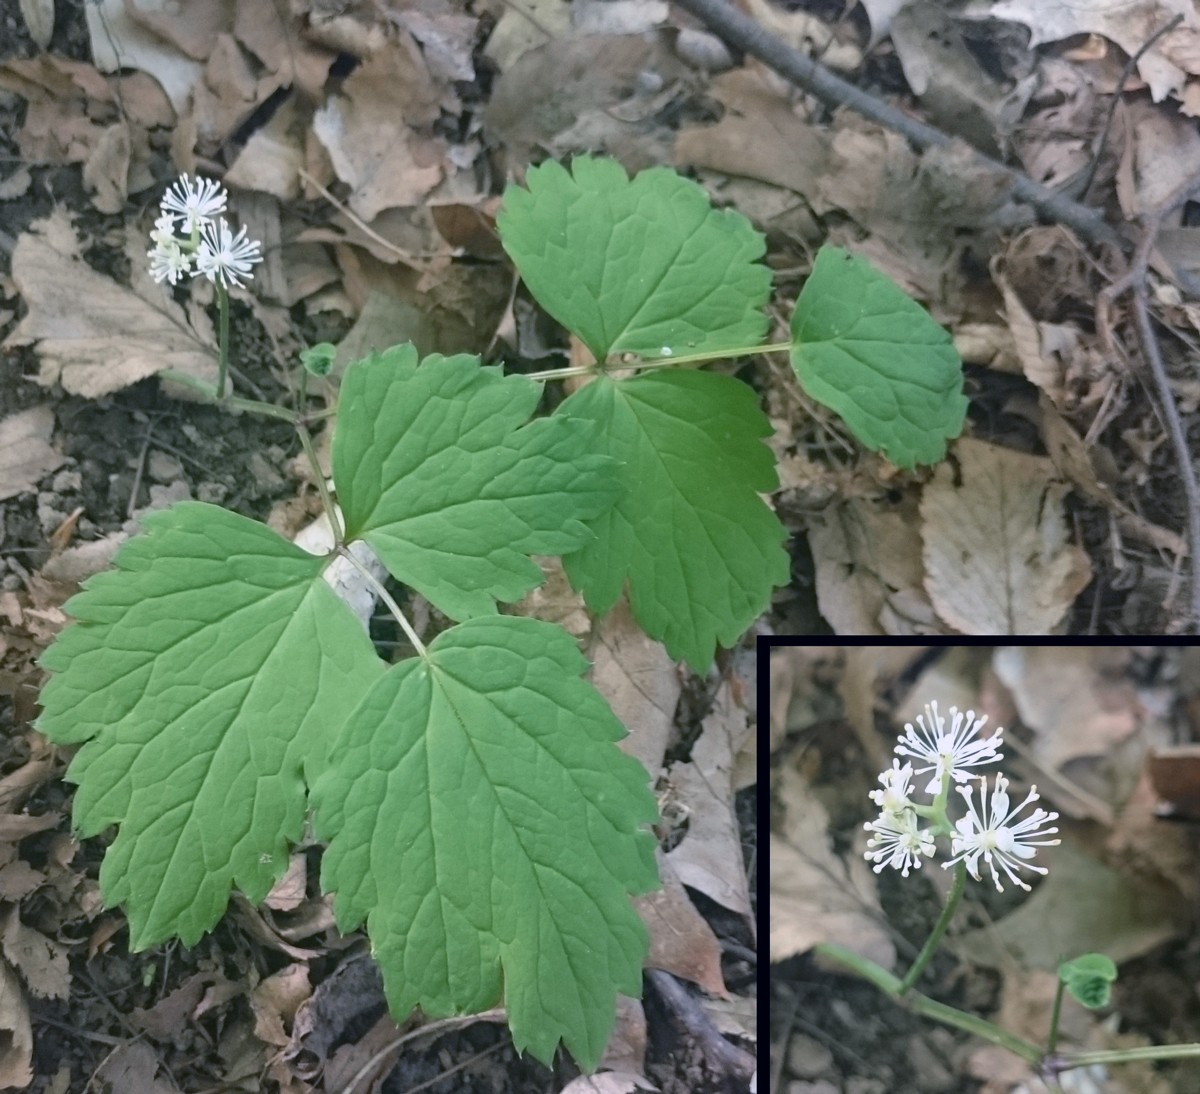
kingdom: Plantae
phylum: Tracheophyta
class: Magnoliopsida
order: Ranunculales
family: Ranunculaceae
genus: Actaea
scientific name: Actaea pachypoda
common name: Doll's-eyes
